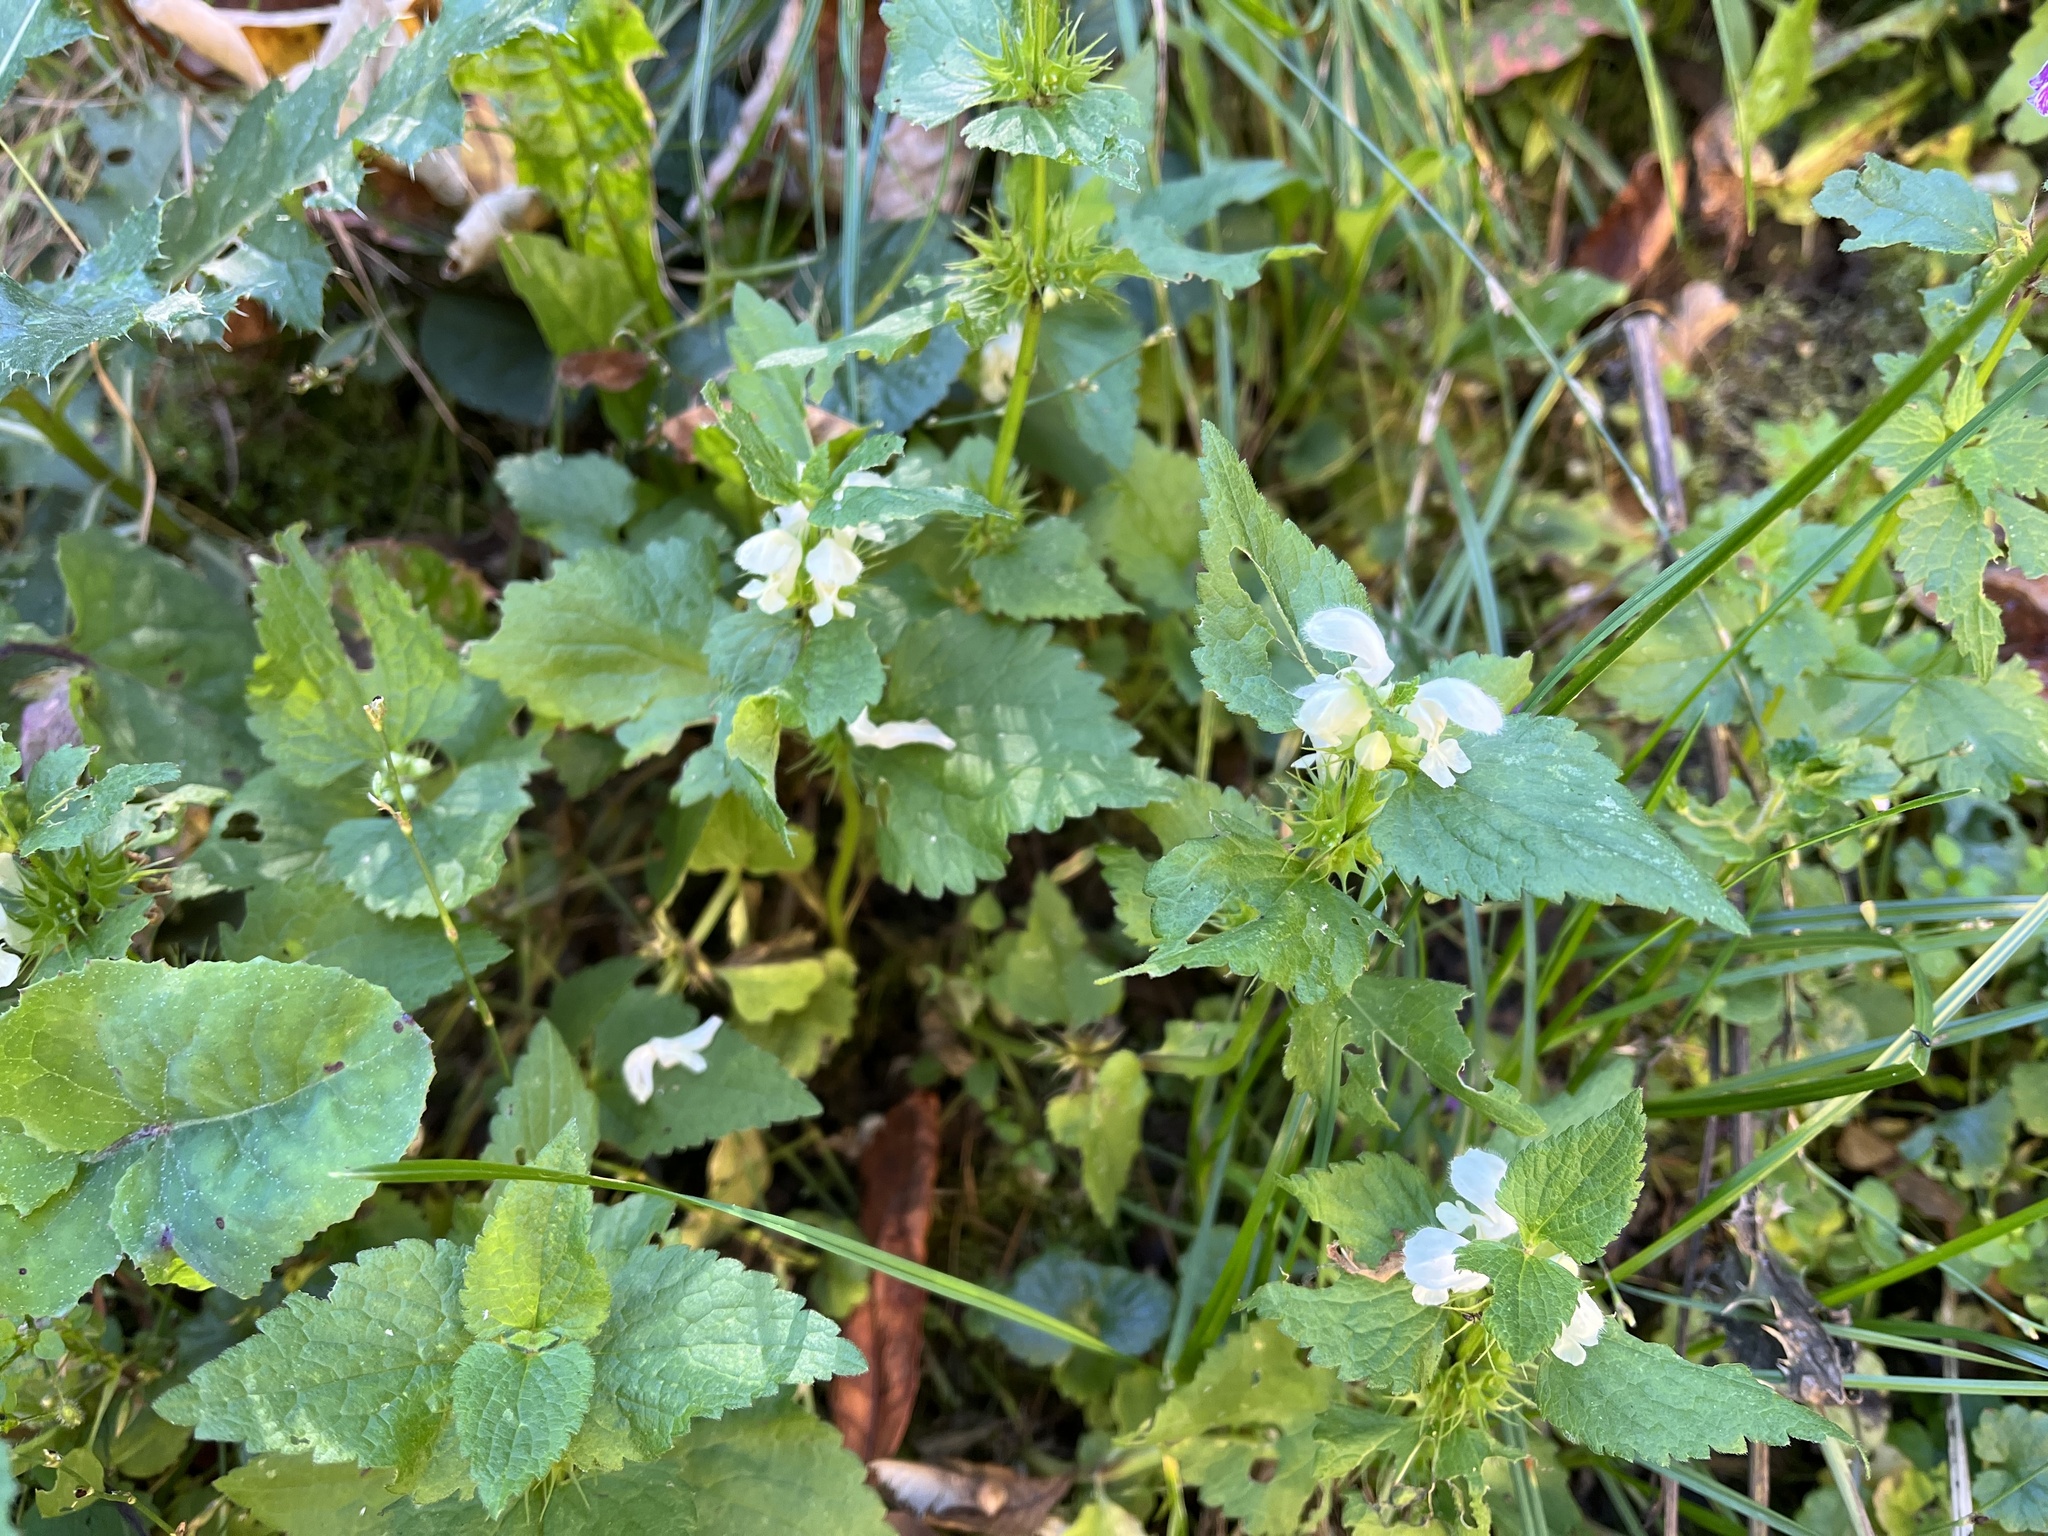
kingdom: Plantae
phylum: Tracheophyta
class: Magnoliopsida
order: Lamiales
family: Lamiaceae
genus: Lamium
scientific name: Lamium album
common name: White dead-nettle
